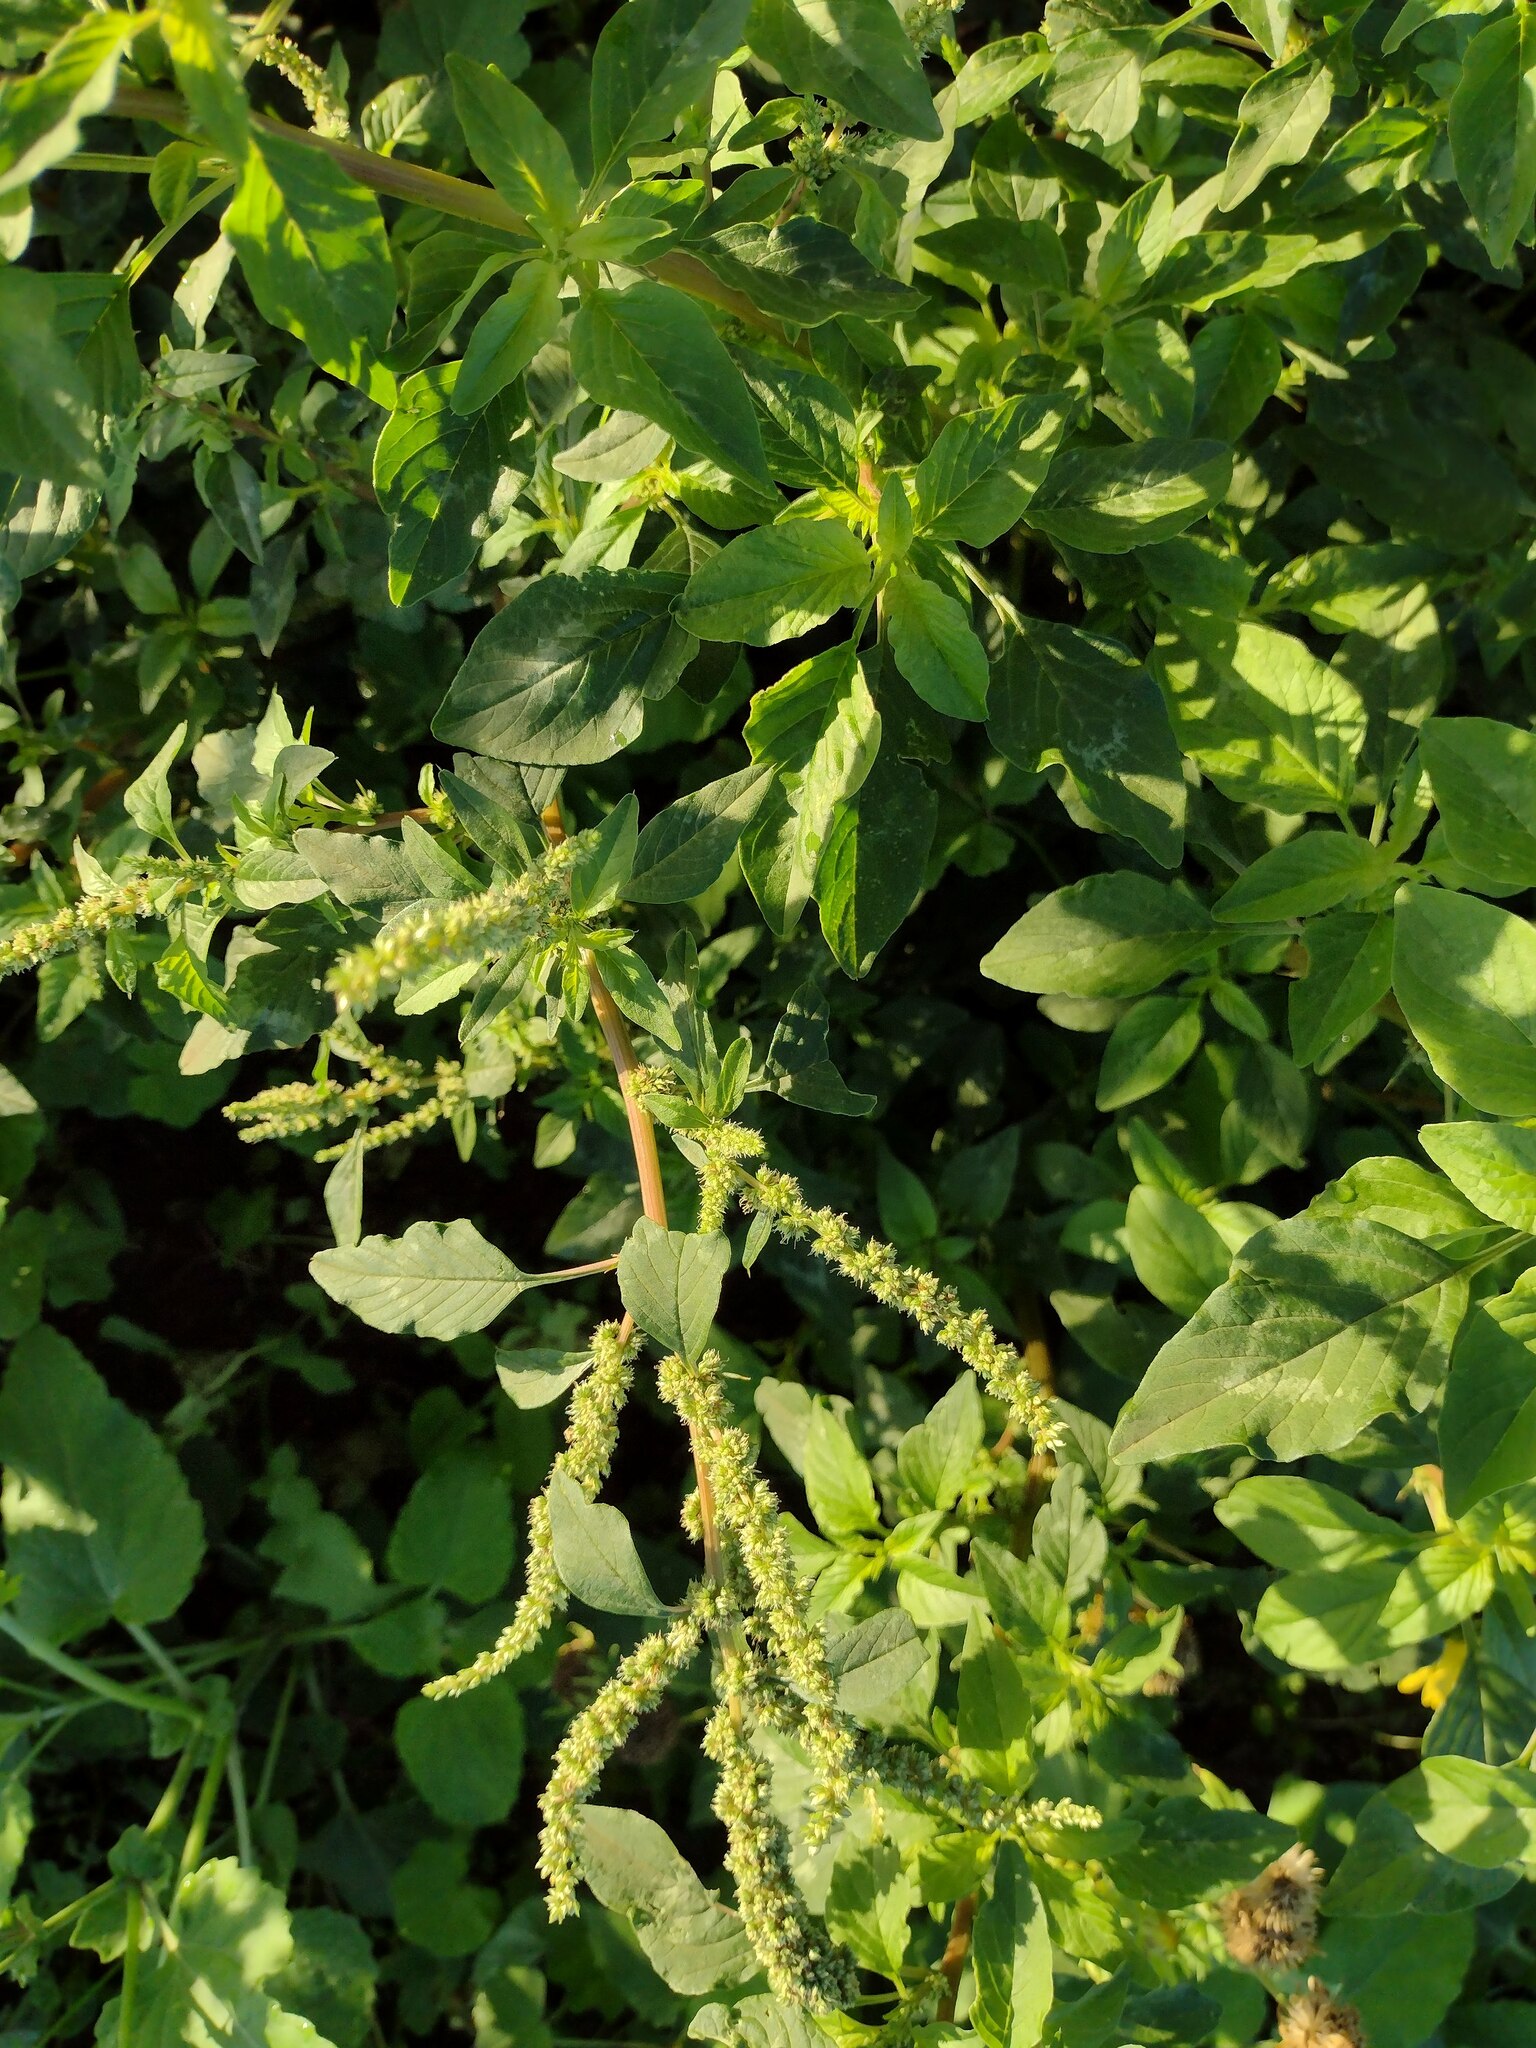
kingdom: Plantae
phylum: Tracheophyta
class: Magnoliopsida
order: Caryophyllales
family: Amaranthaceae
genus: Amaranthus
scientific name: Amaranthus spinosus
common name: Spiny amaranth
